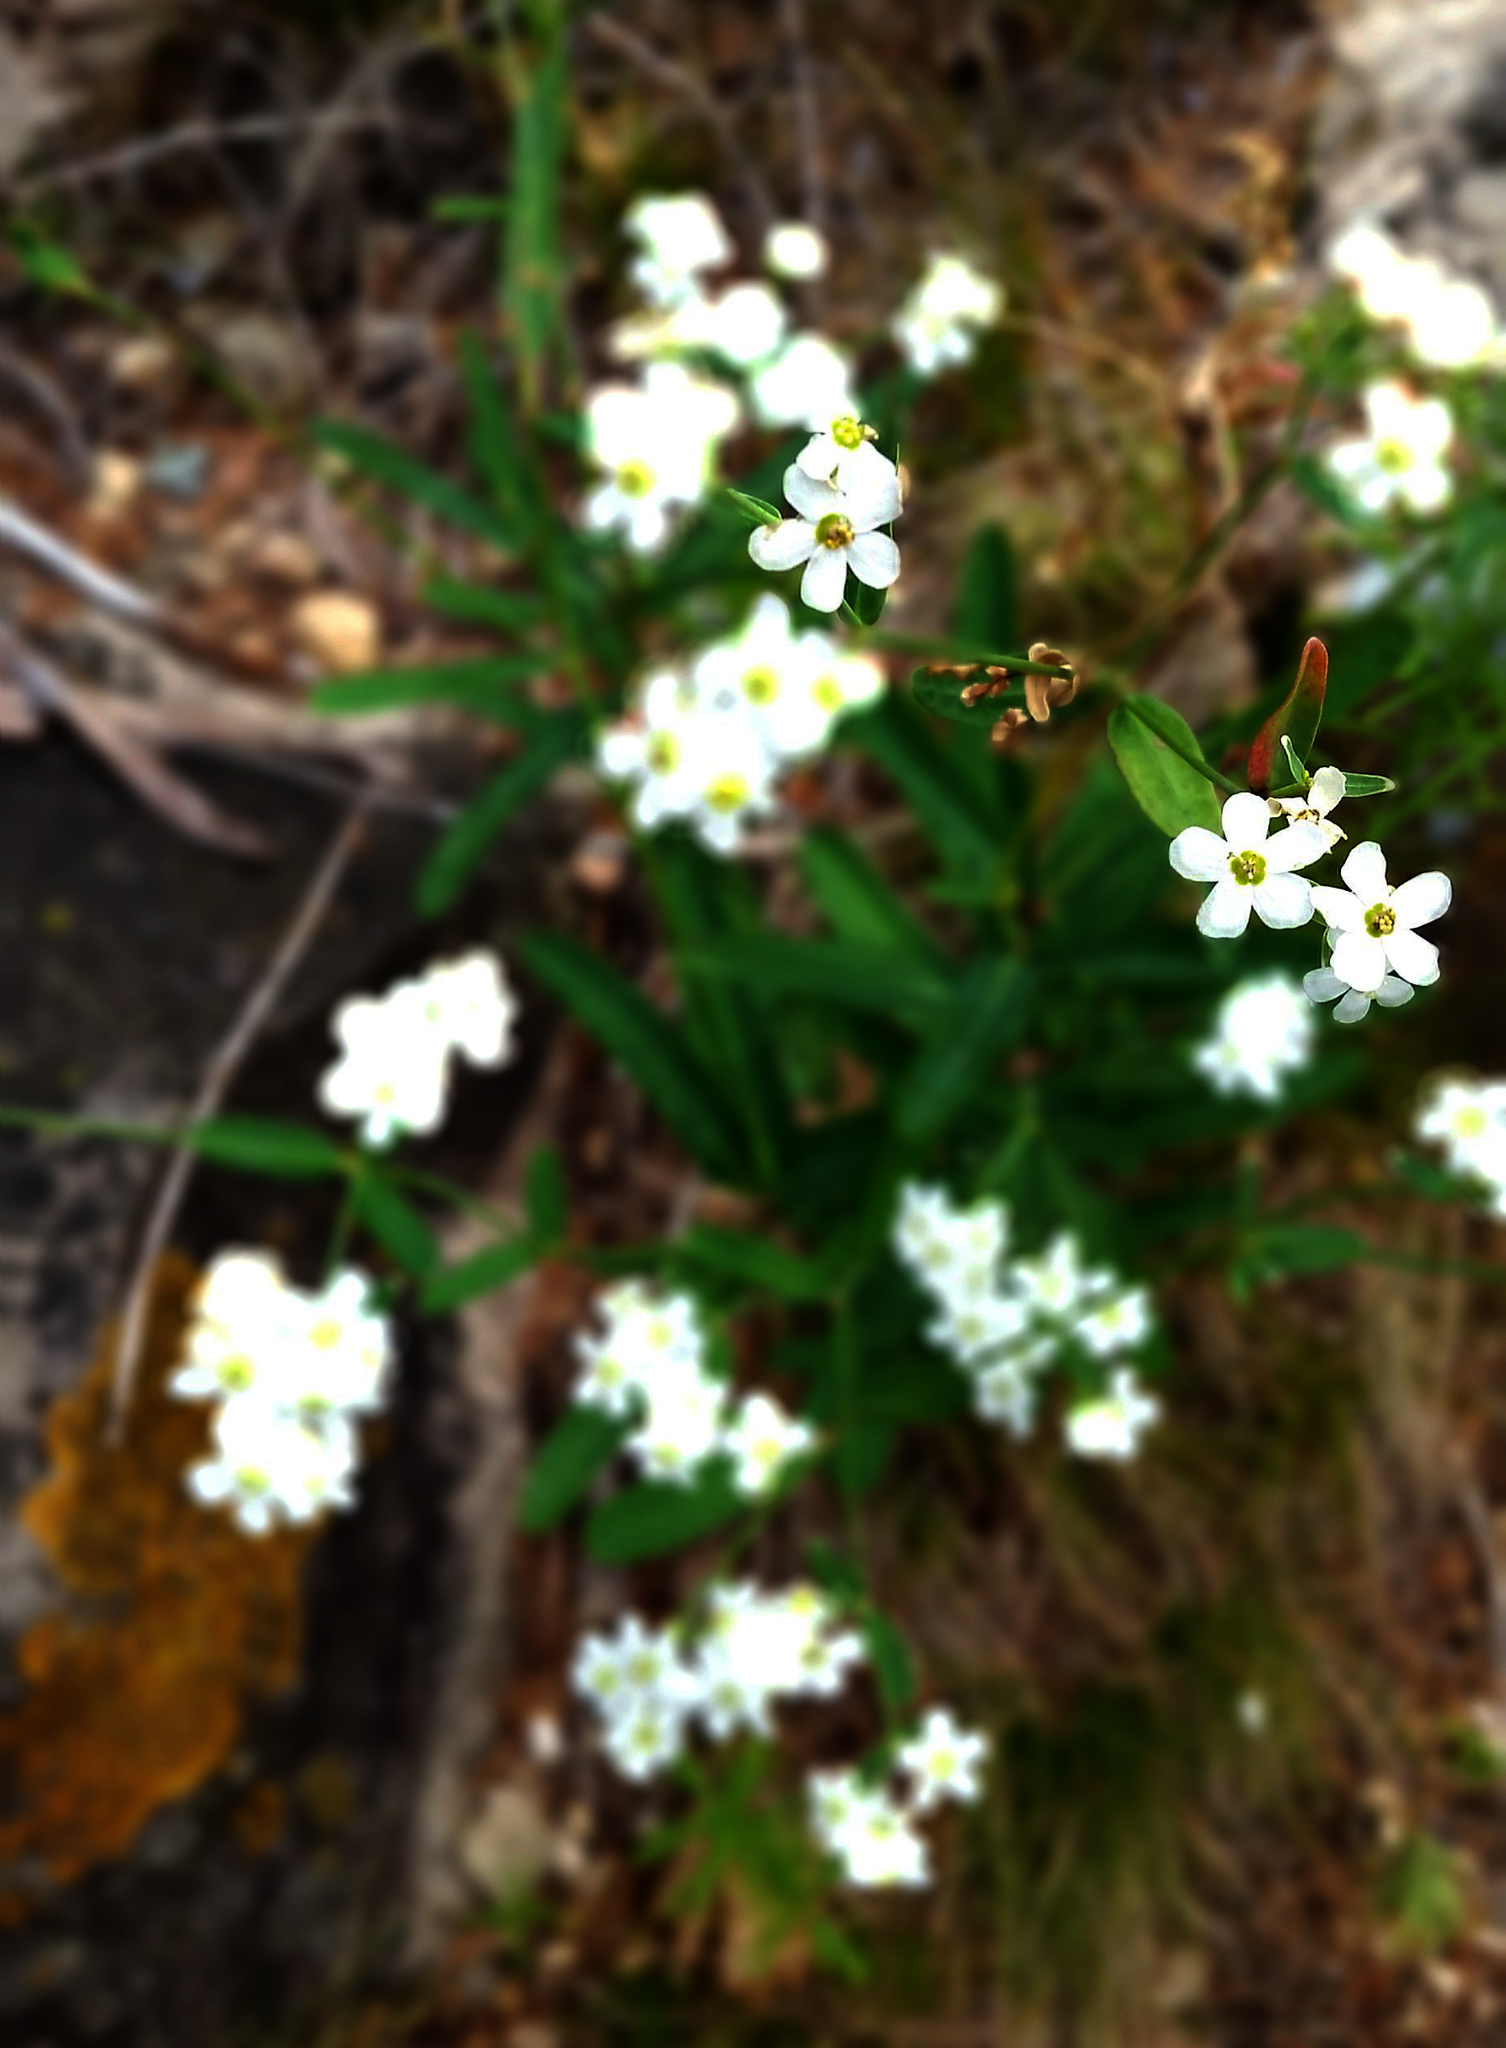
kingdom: Plantae
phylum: Tracheophyta
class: Magnoliopsida
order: Malpighiales
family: Euphorbiaceae
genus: Euphorbia
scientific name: Euphorbia corollata
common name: Flowering spurge
